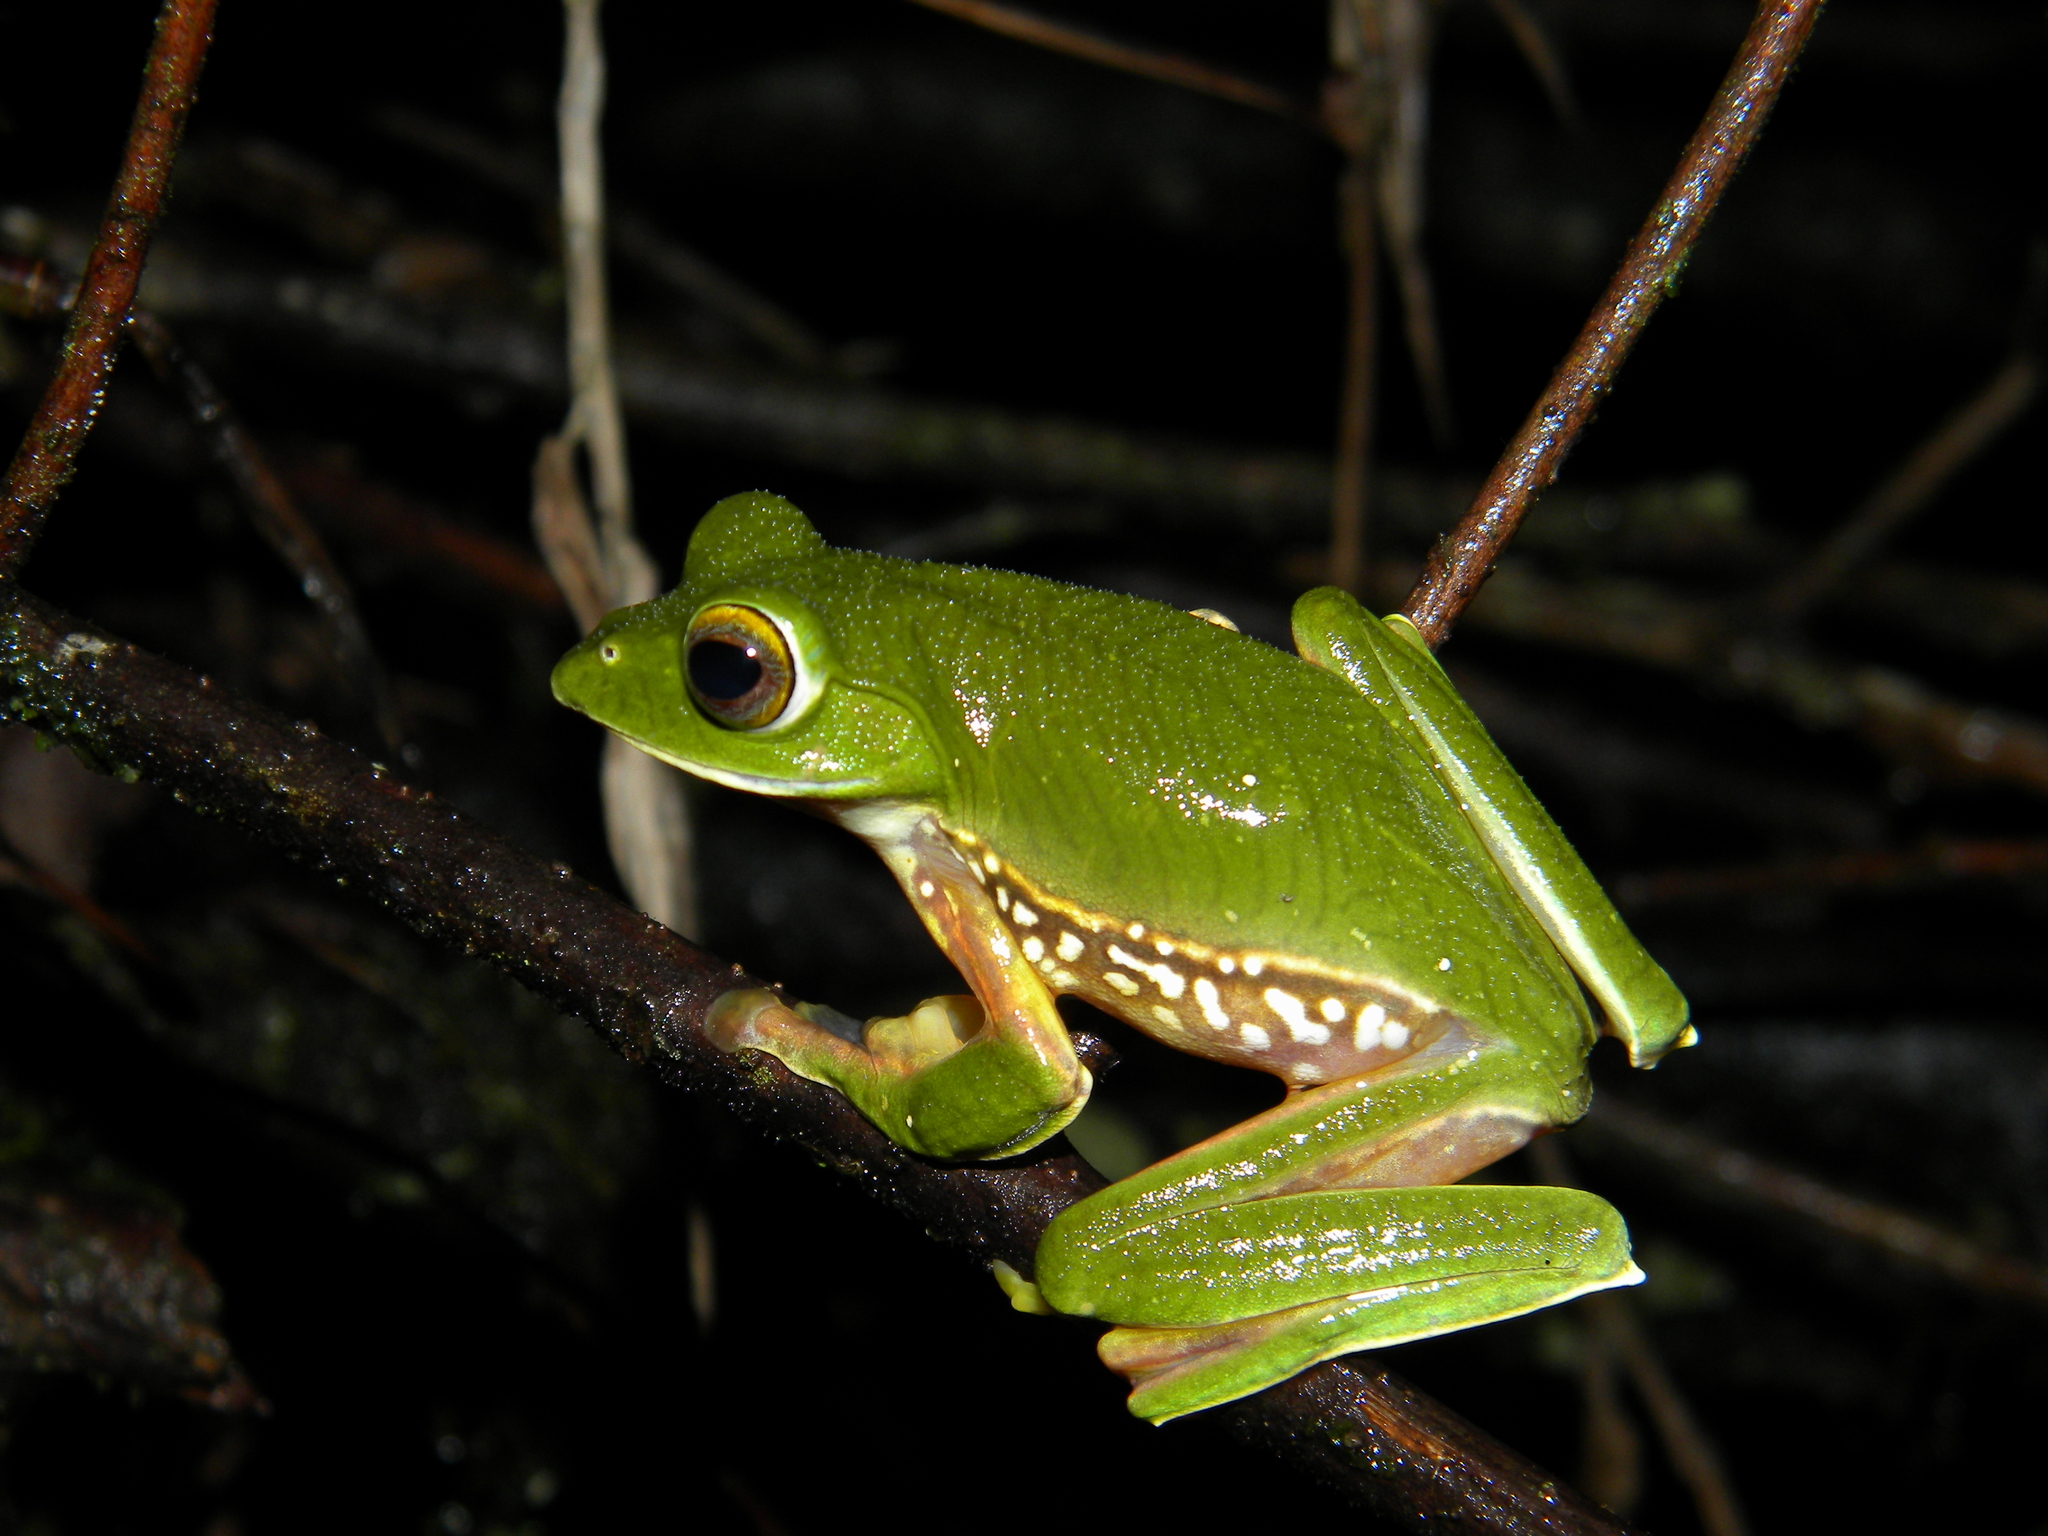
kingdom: Animalia
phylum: Chordata
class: Amphibia
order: Anura
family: Rhacophoridae
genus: Rhacophorus
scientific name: Rhacophorus pseudomalabaricus
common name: Anaimalai flying frog
